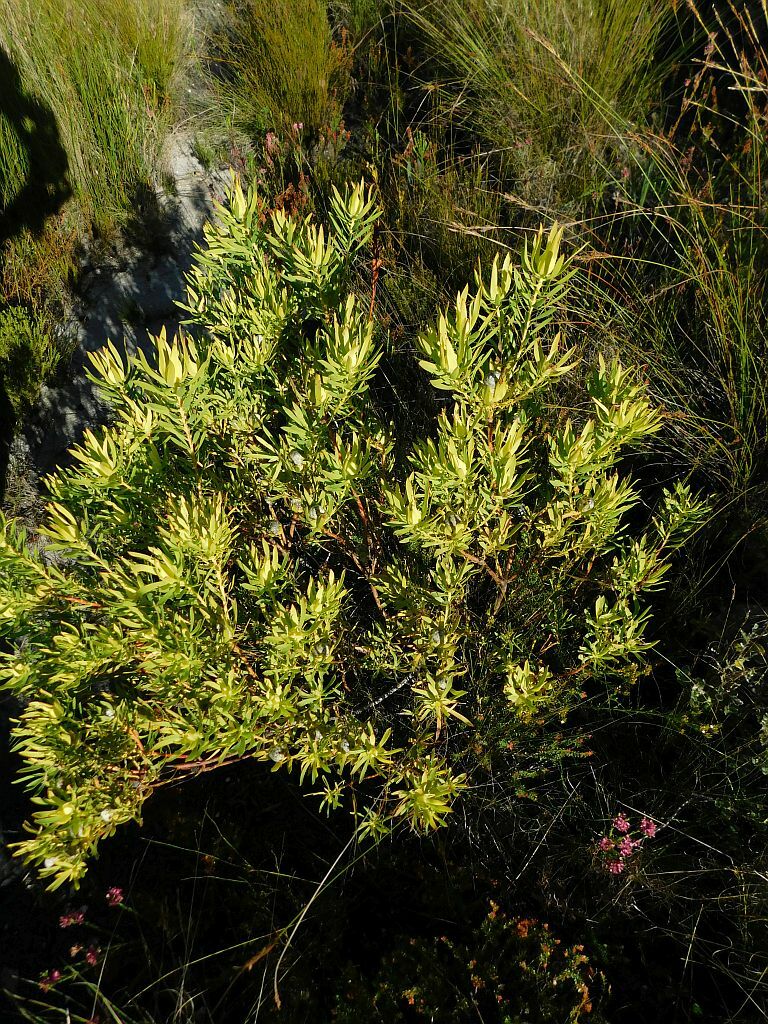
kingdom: Plantae
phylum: Tracheophyta
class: Magnoliopsida
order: Proteales
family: Proteaceae
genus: Leucadendron
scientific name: Leucadendron salignum
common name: Common sunshine conebush
